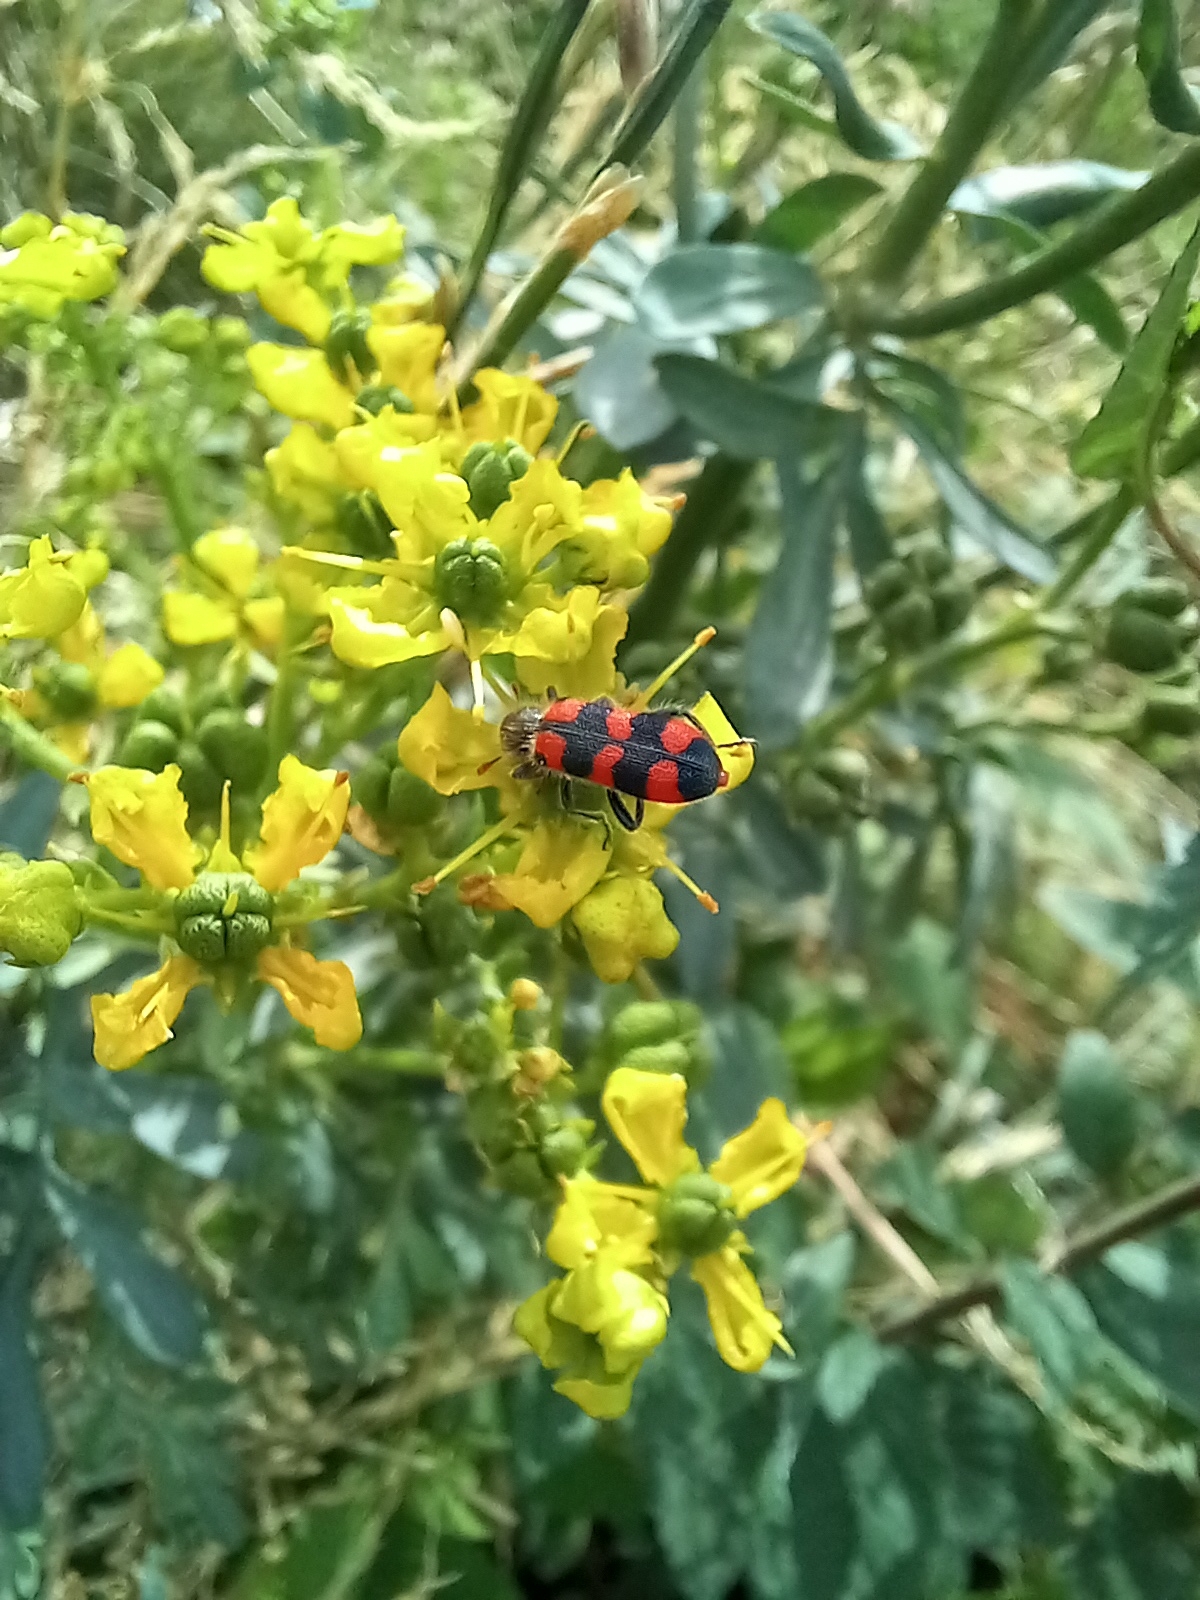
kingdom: Animalia
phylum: Arthropoda
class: Insecta
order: Coleoptera
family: Cleridae
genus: Trichodes
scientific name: Trichodes leucopsideus
